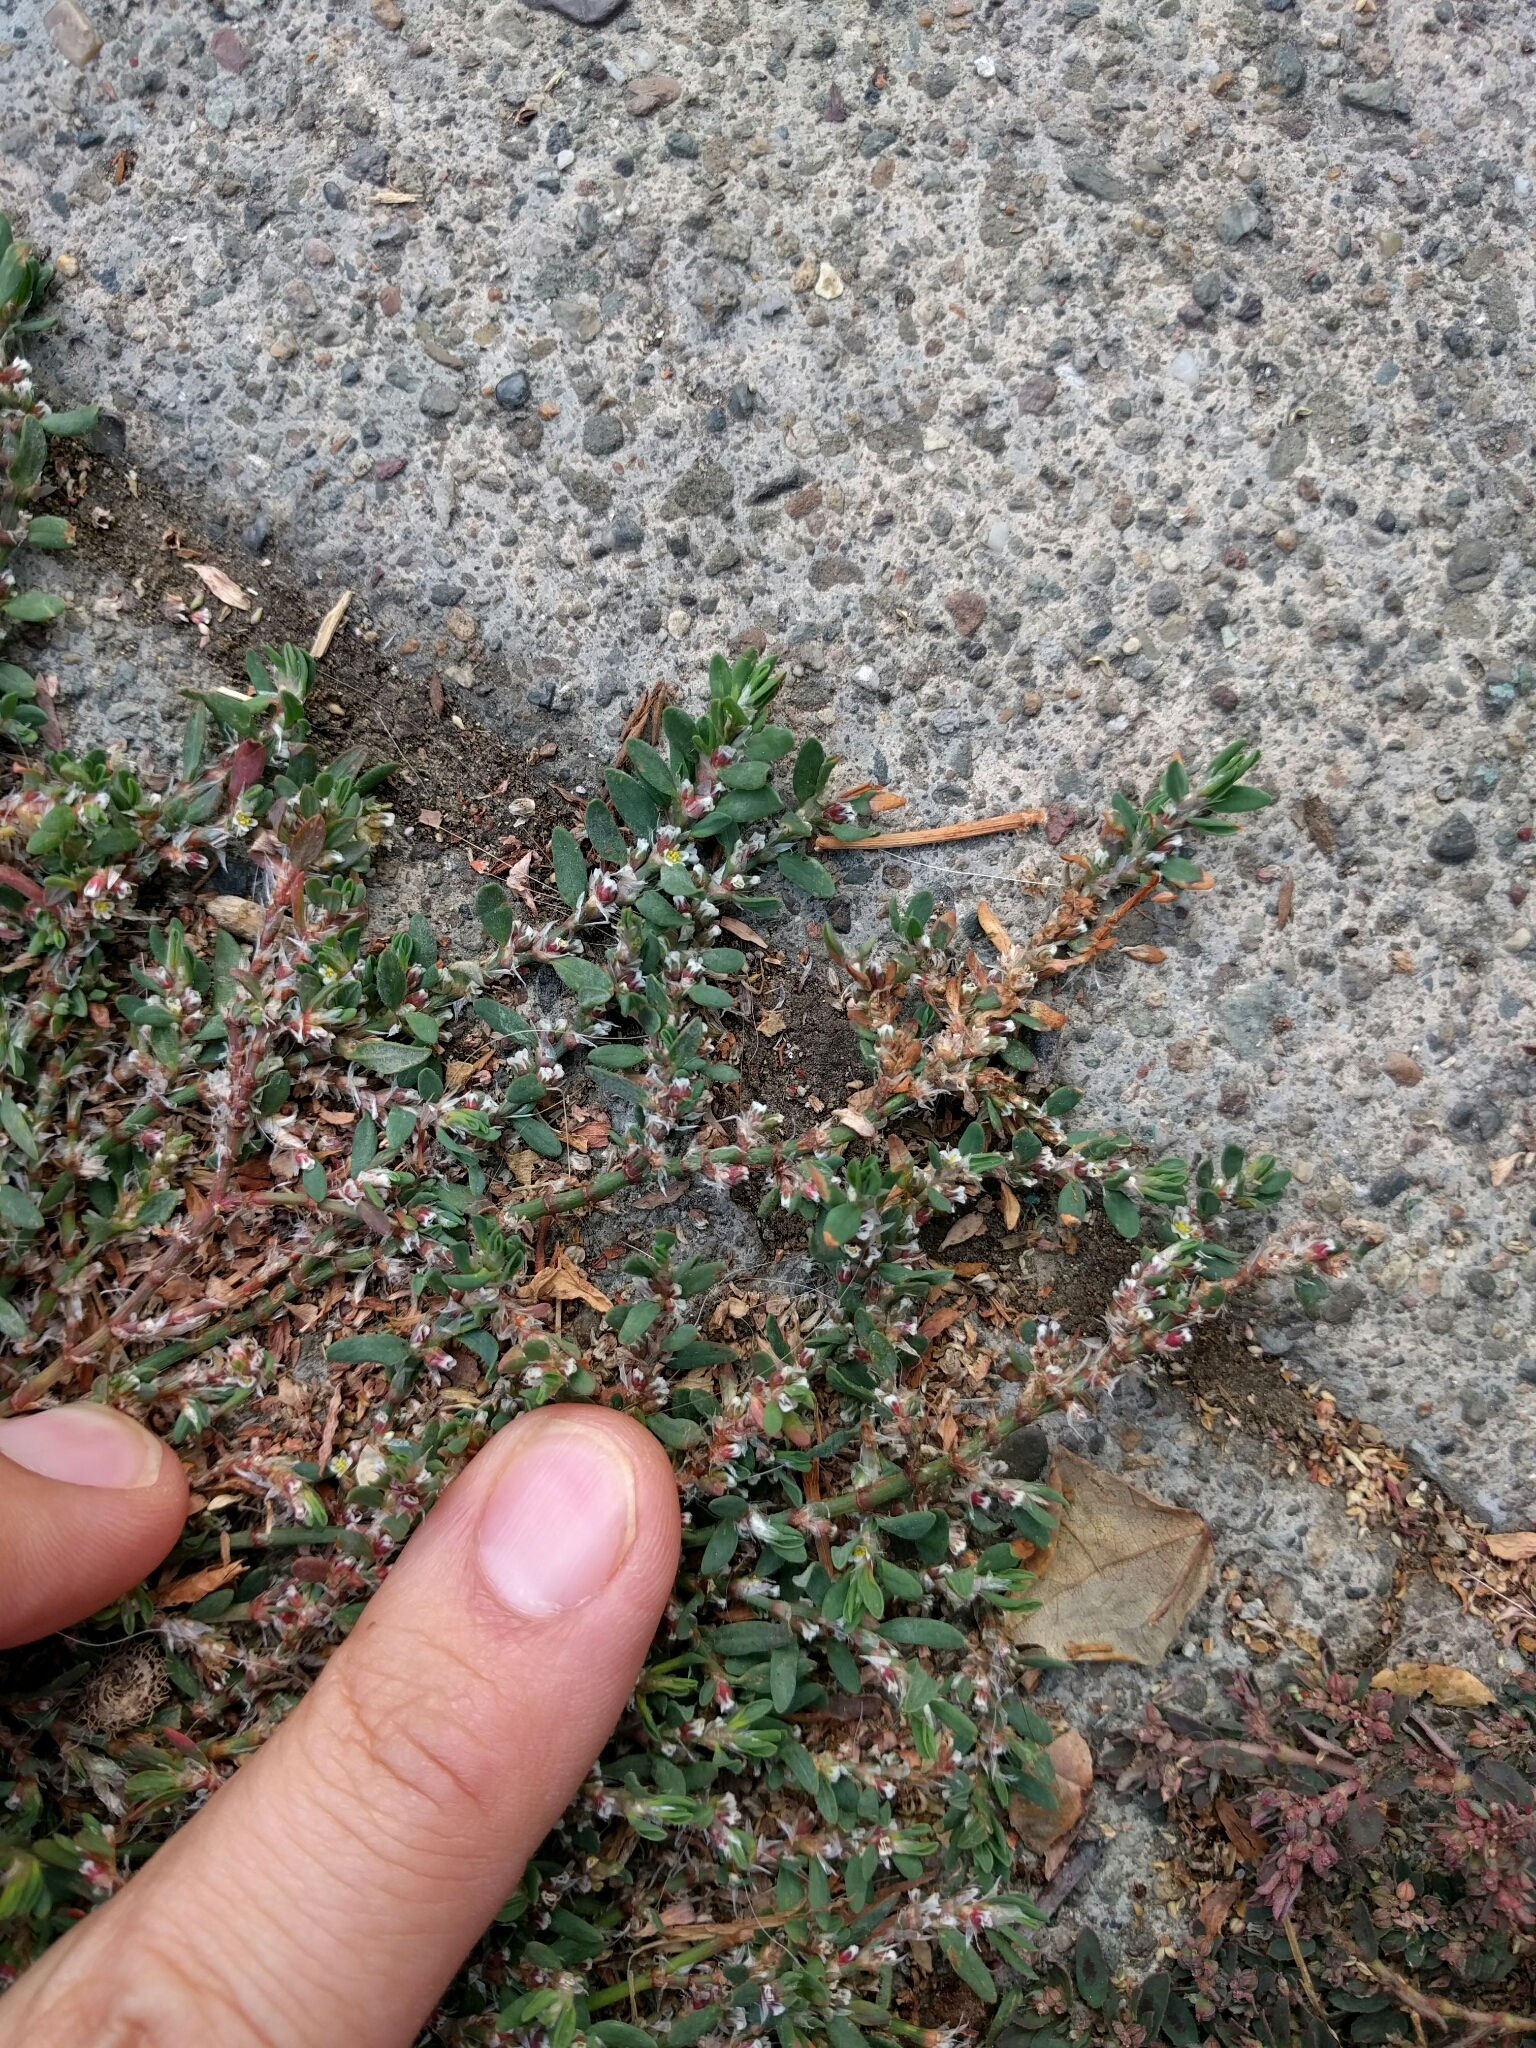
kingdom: Plantae
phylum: Tracheophyta
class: Magnoliopsida
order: Caryophyllales
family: Polygonaceae
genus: Polygonum
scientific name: Polygonum aviculare
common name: Prostrate knotweed
